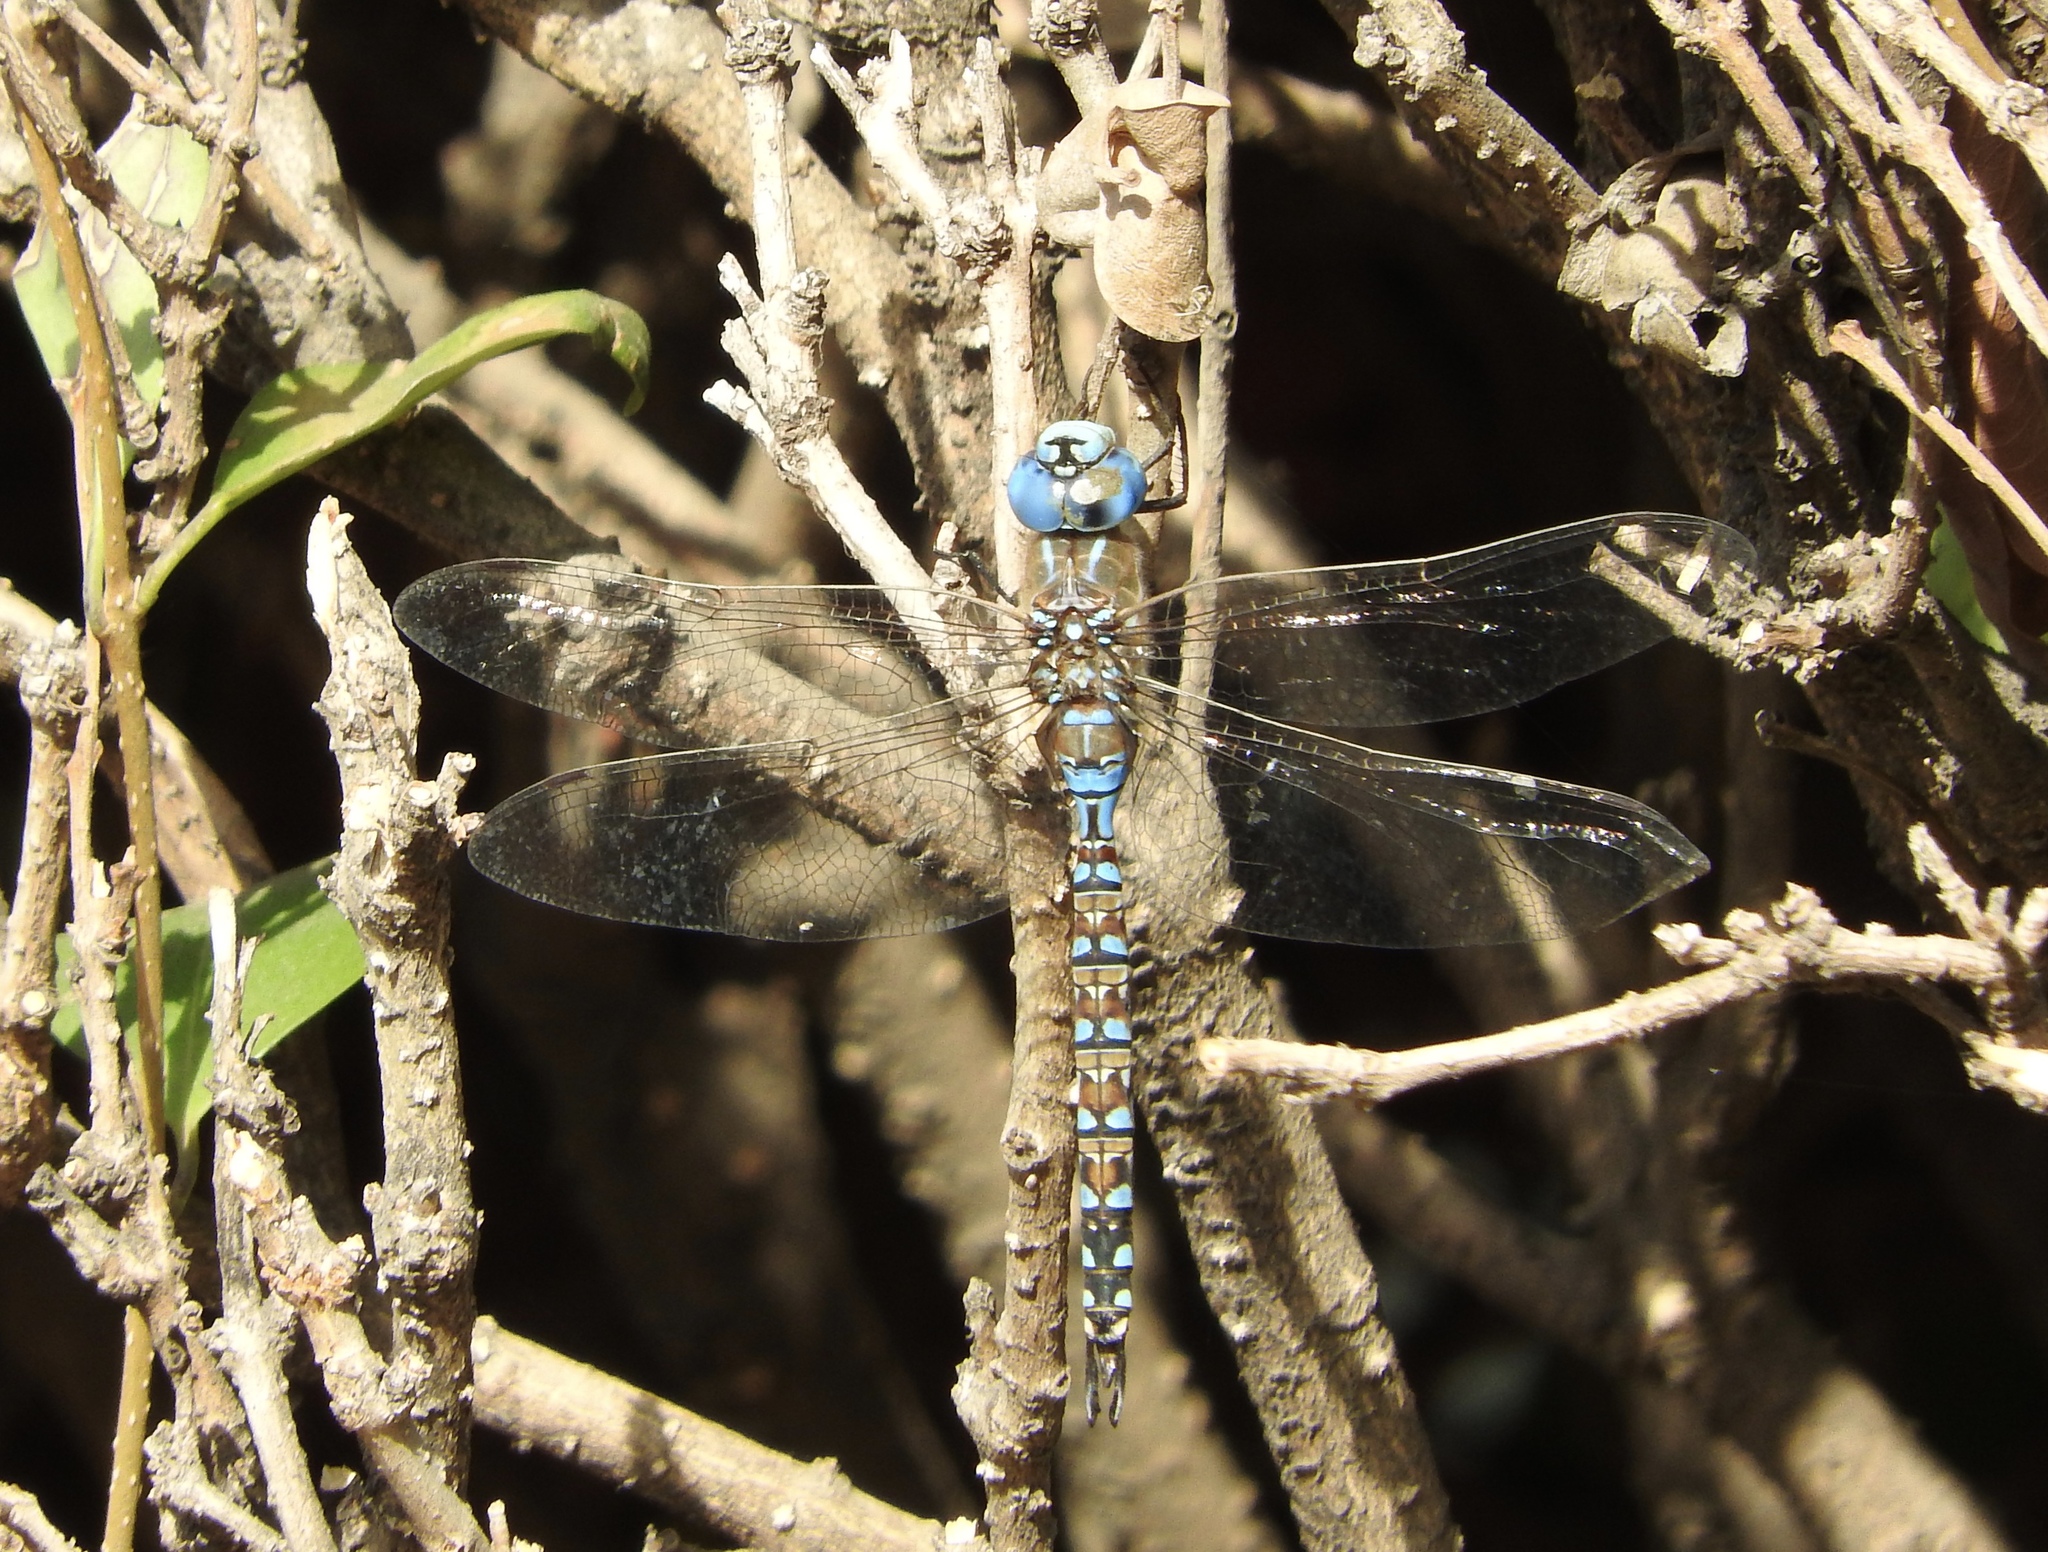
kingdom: Animalia
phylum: Arthropoda
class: Insecta
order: Odonata
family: Aeshnidae
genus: Rhionaeschna
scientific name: Rhionaeschna multicolor
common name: Blue-eyed darner
